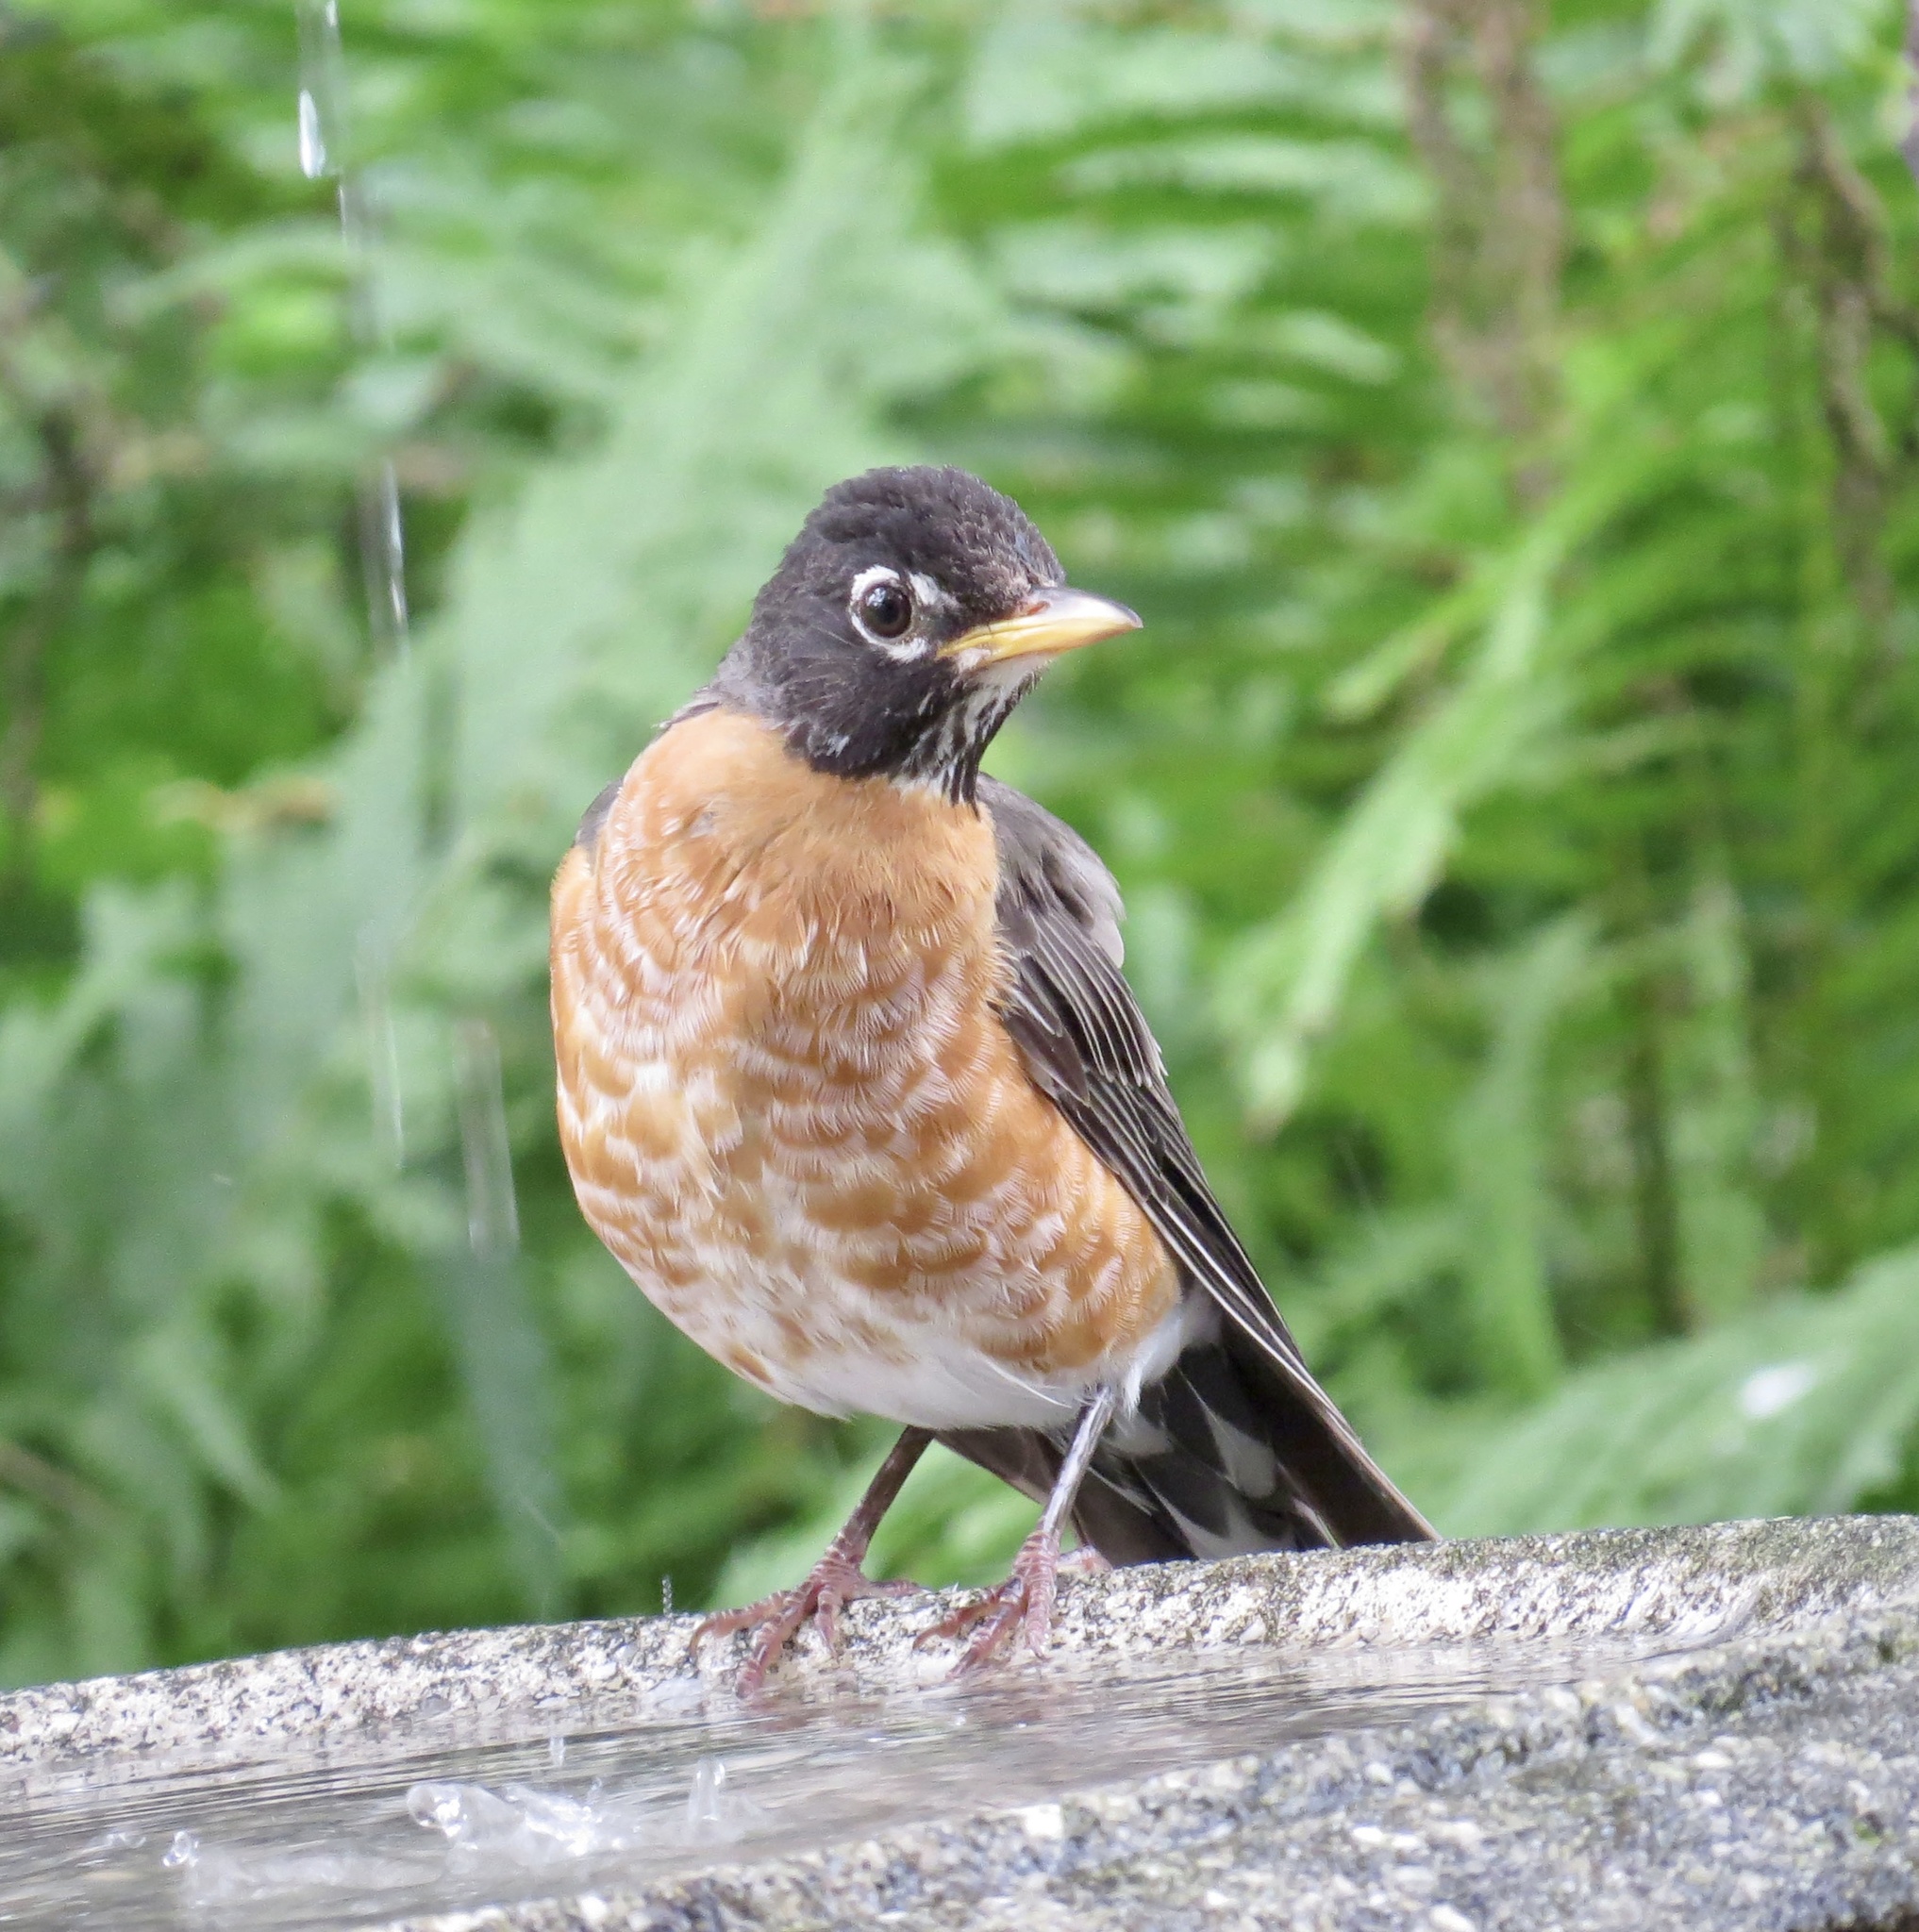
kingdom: Animalia
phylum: Chordata
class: Aves
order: Passeriformes
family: Turdidae
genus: Turdus
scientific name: Turdus migratorius
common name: American robin
